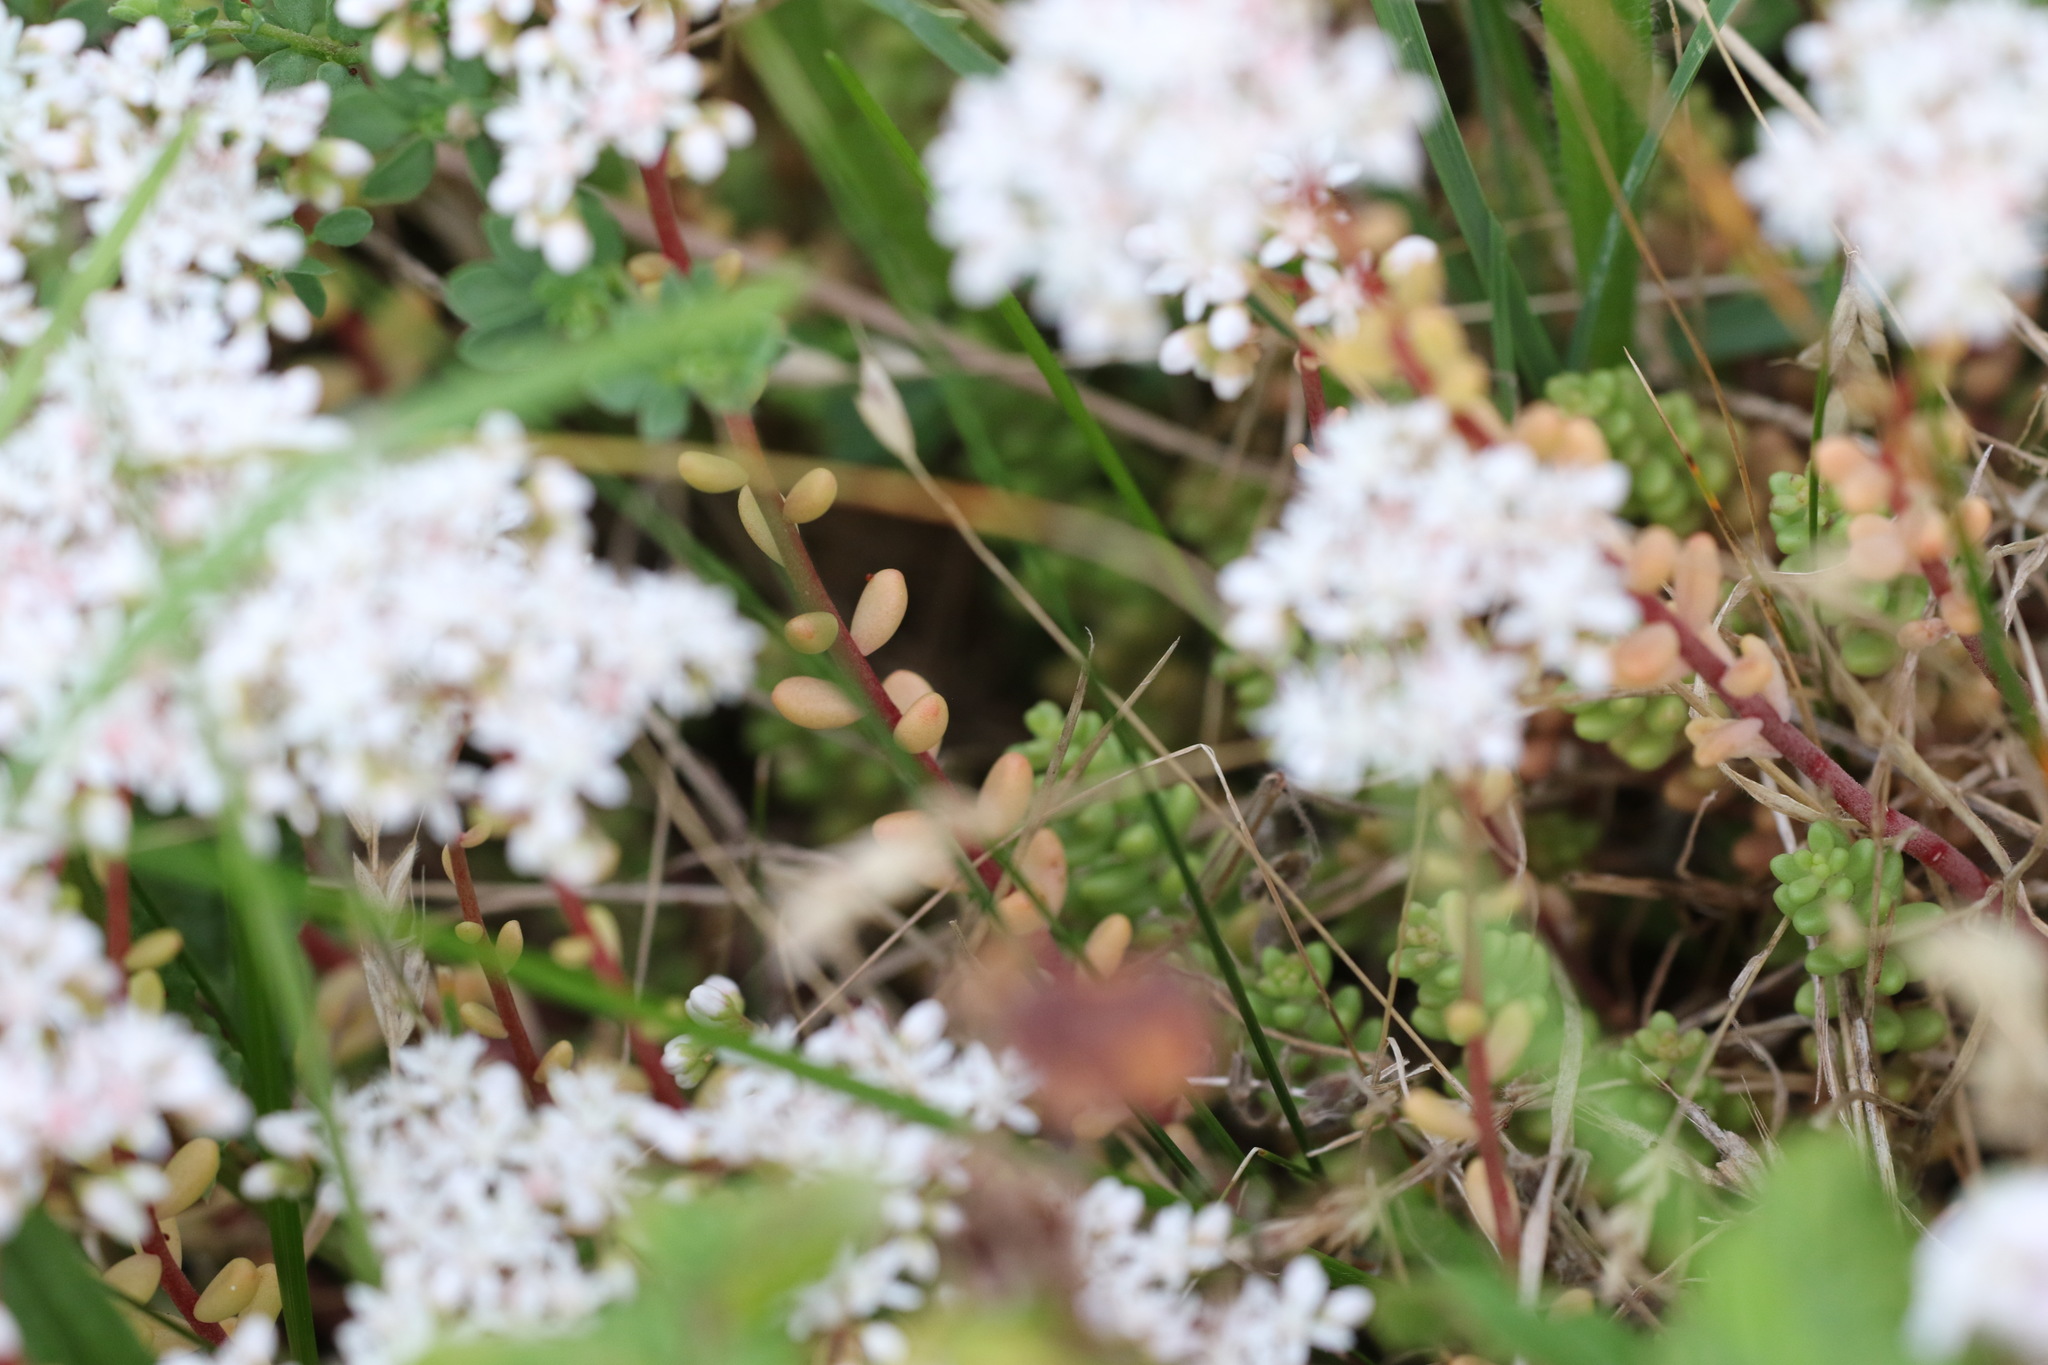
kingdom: Plantae
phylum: Tracheophyta
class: Magnoliopsida
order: Saxifragales
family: Crassulaceae
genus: Sedum
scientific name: Sedum album
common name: White stonecrop
